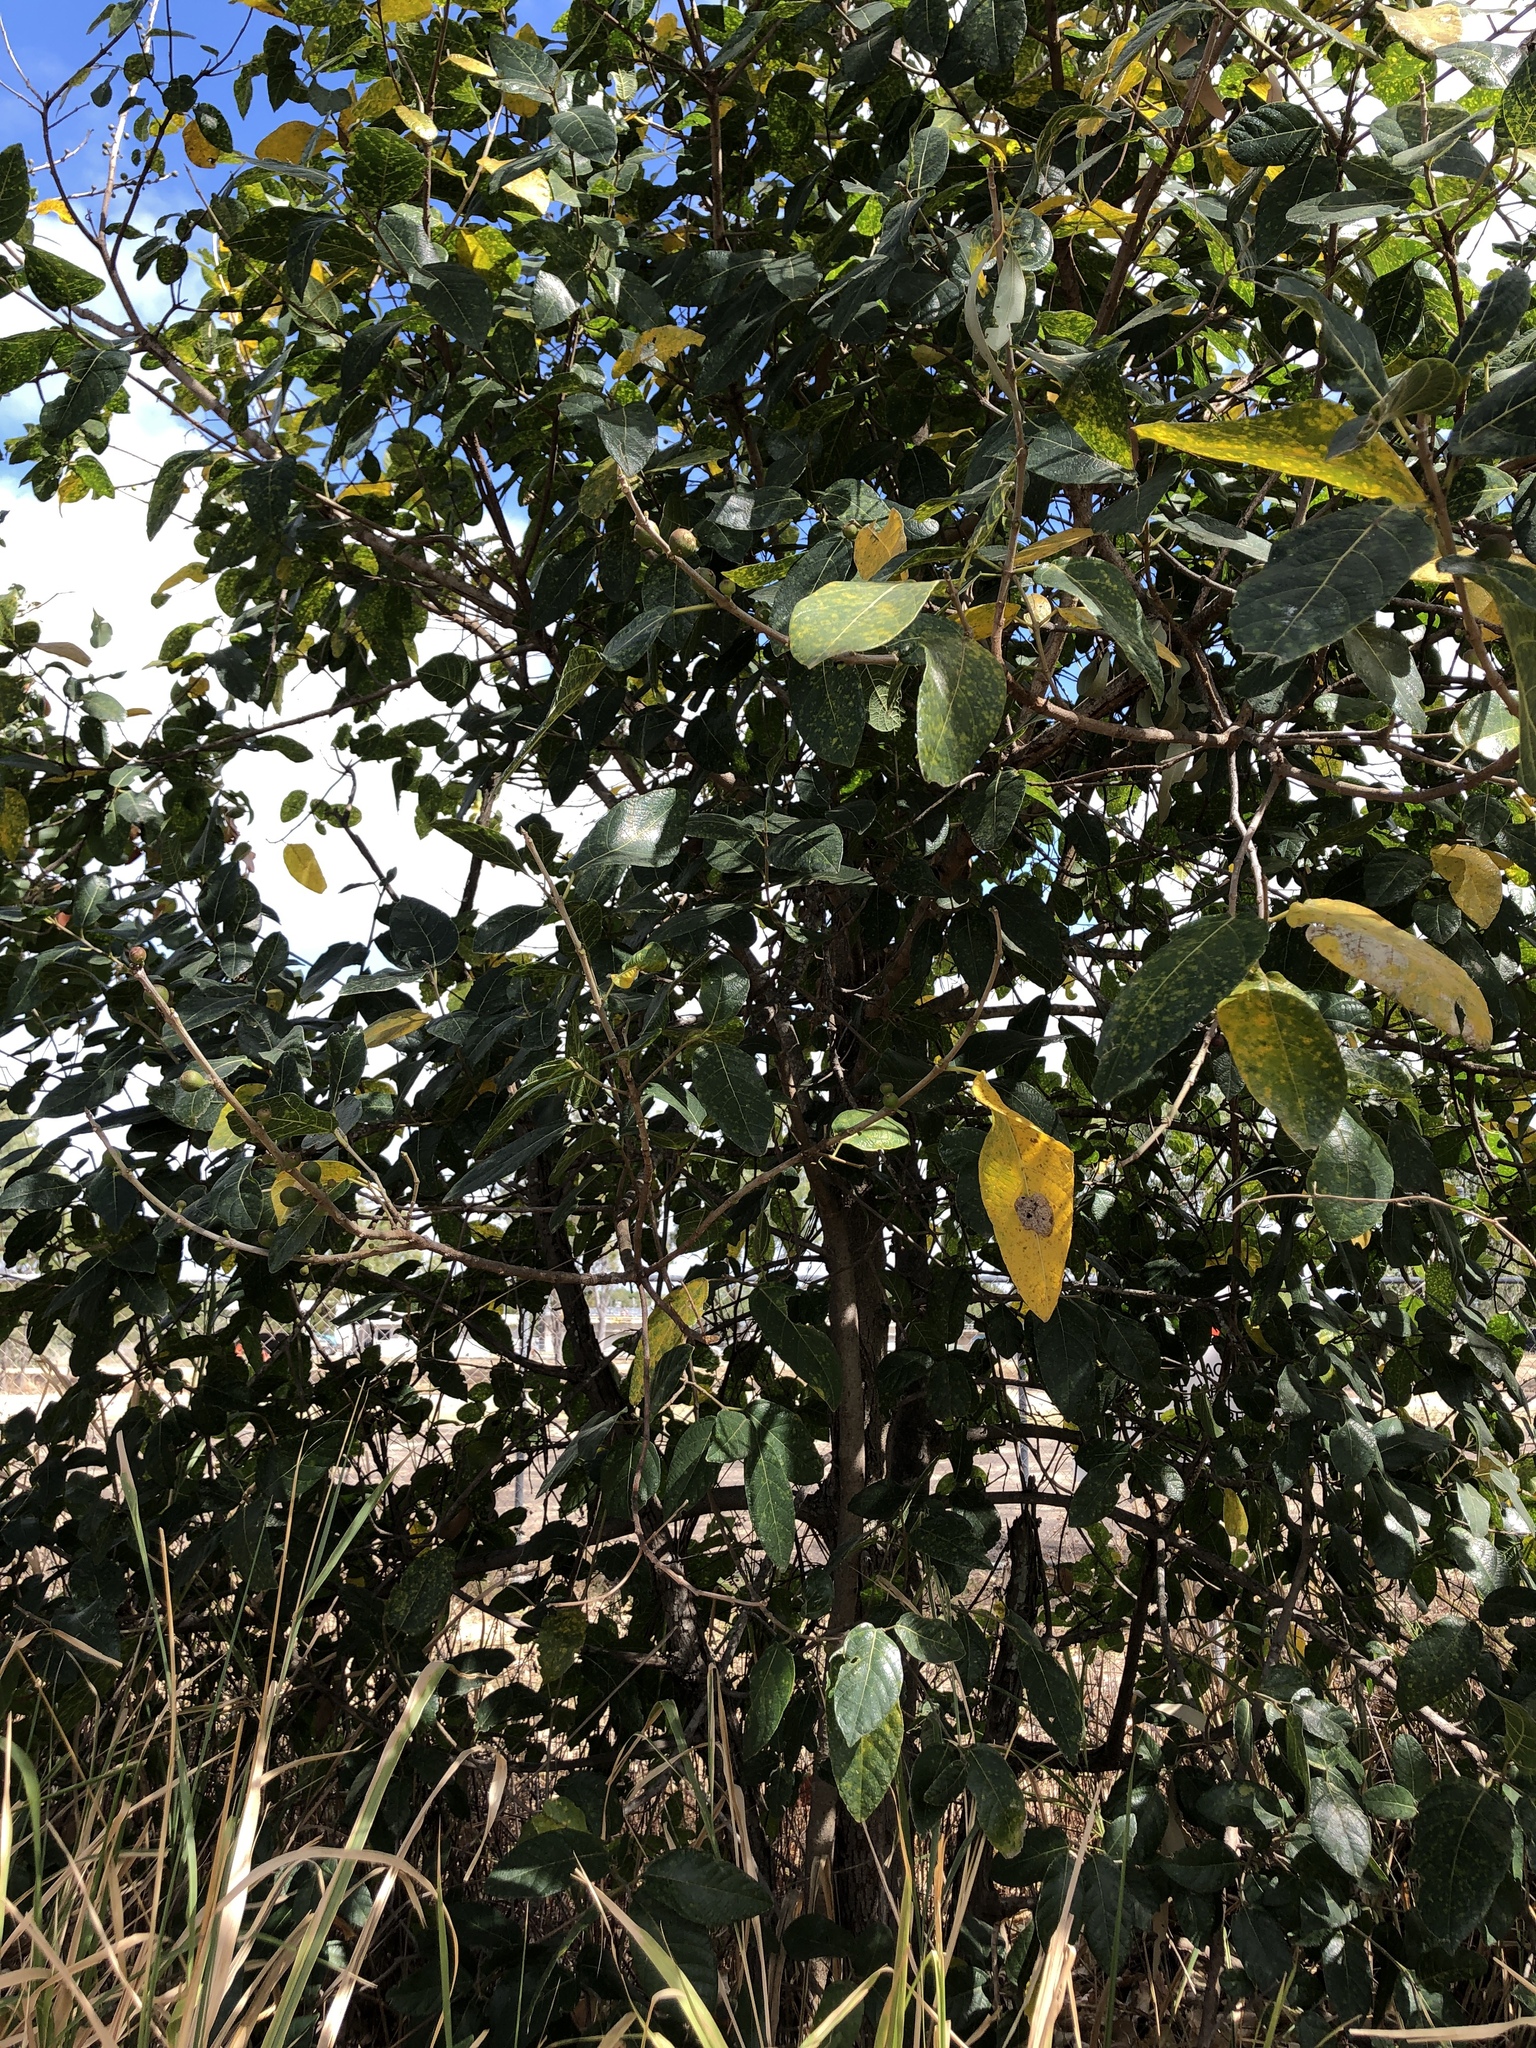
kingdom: Plantae
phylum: Tracheophyta
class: Magnoliopsida
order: Rosales
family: Moraceae
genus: Ficus
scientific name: Ficus opposita
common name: Figwood
